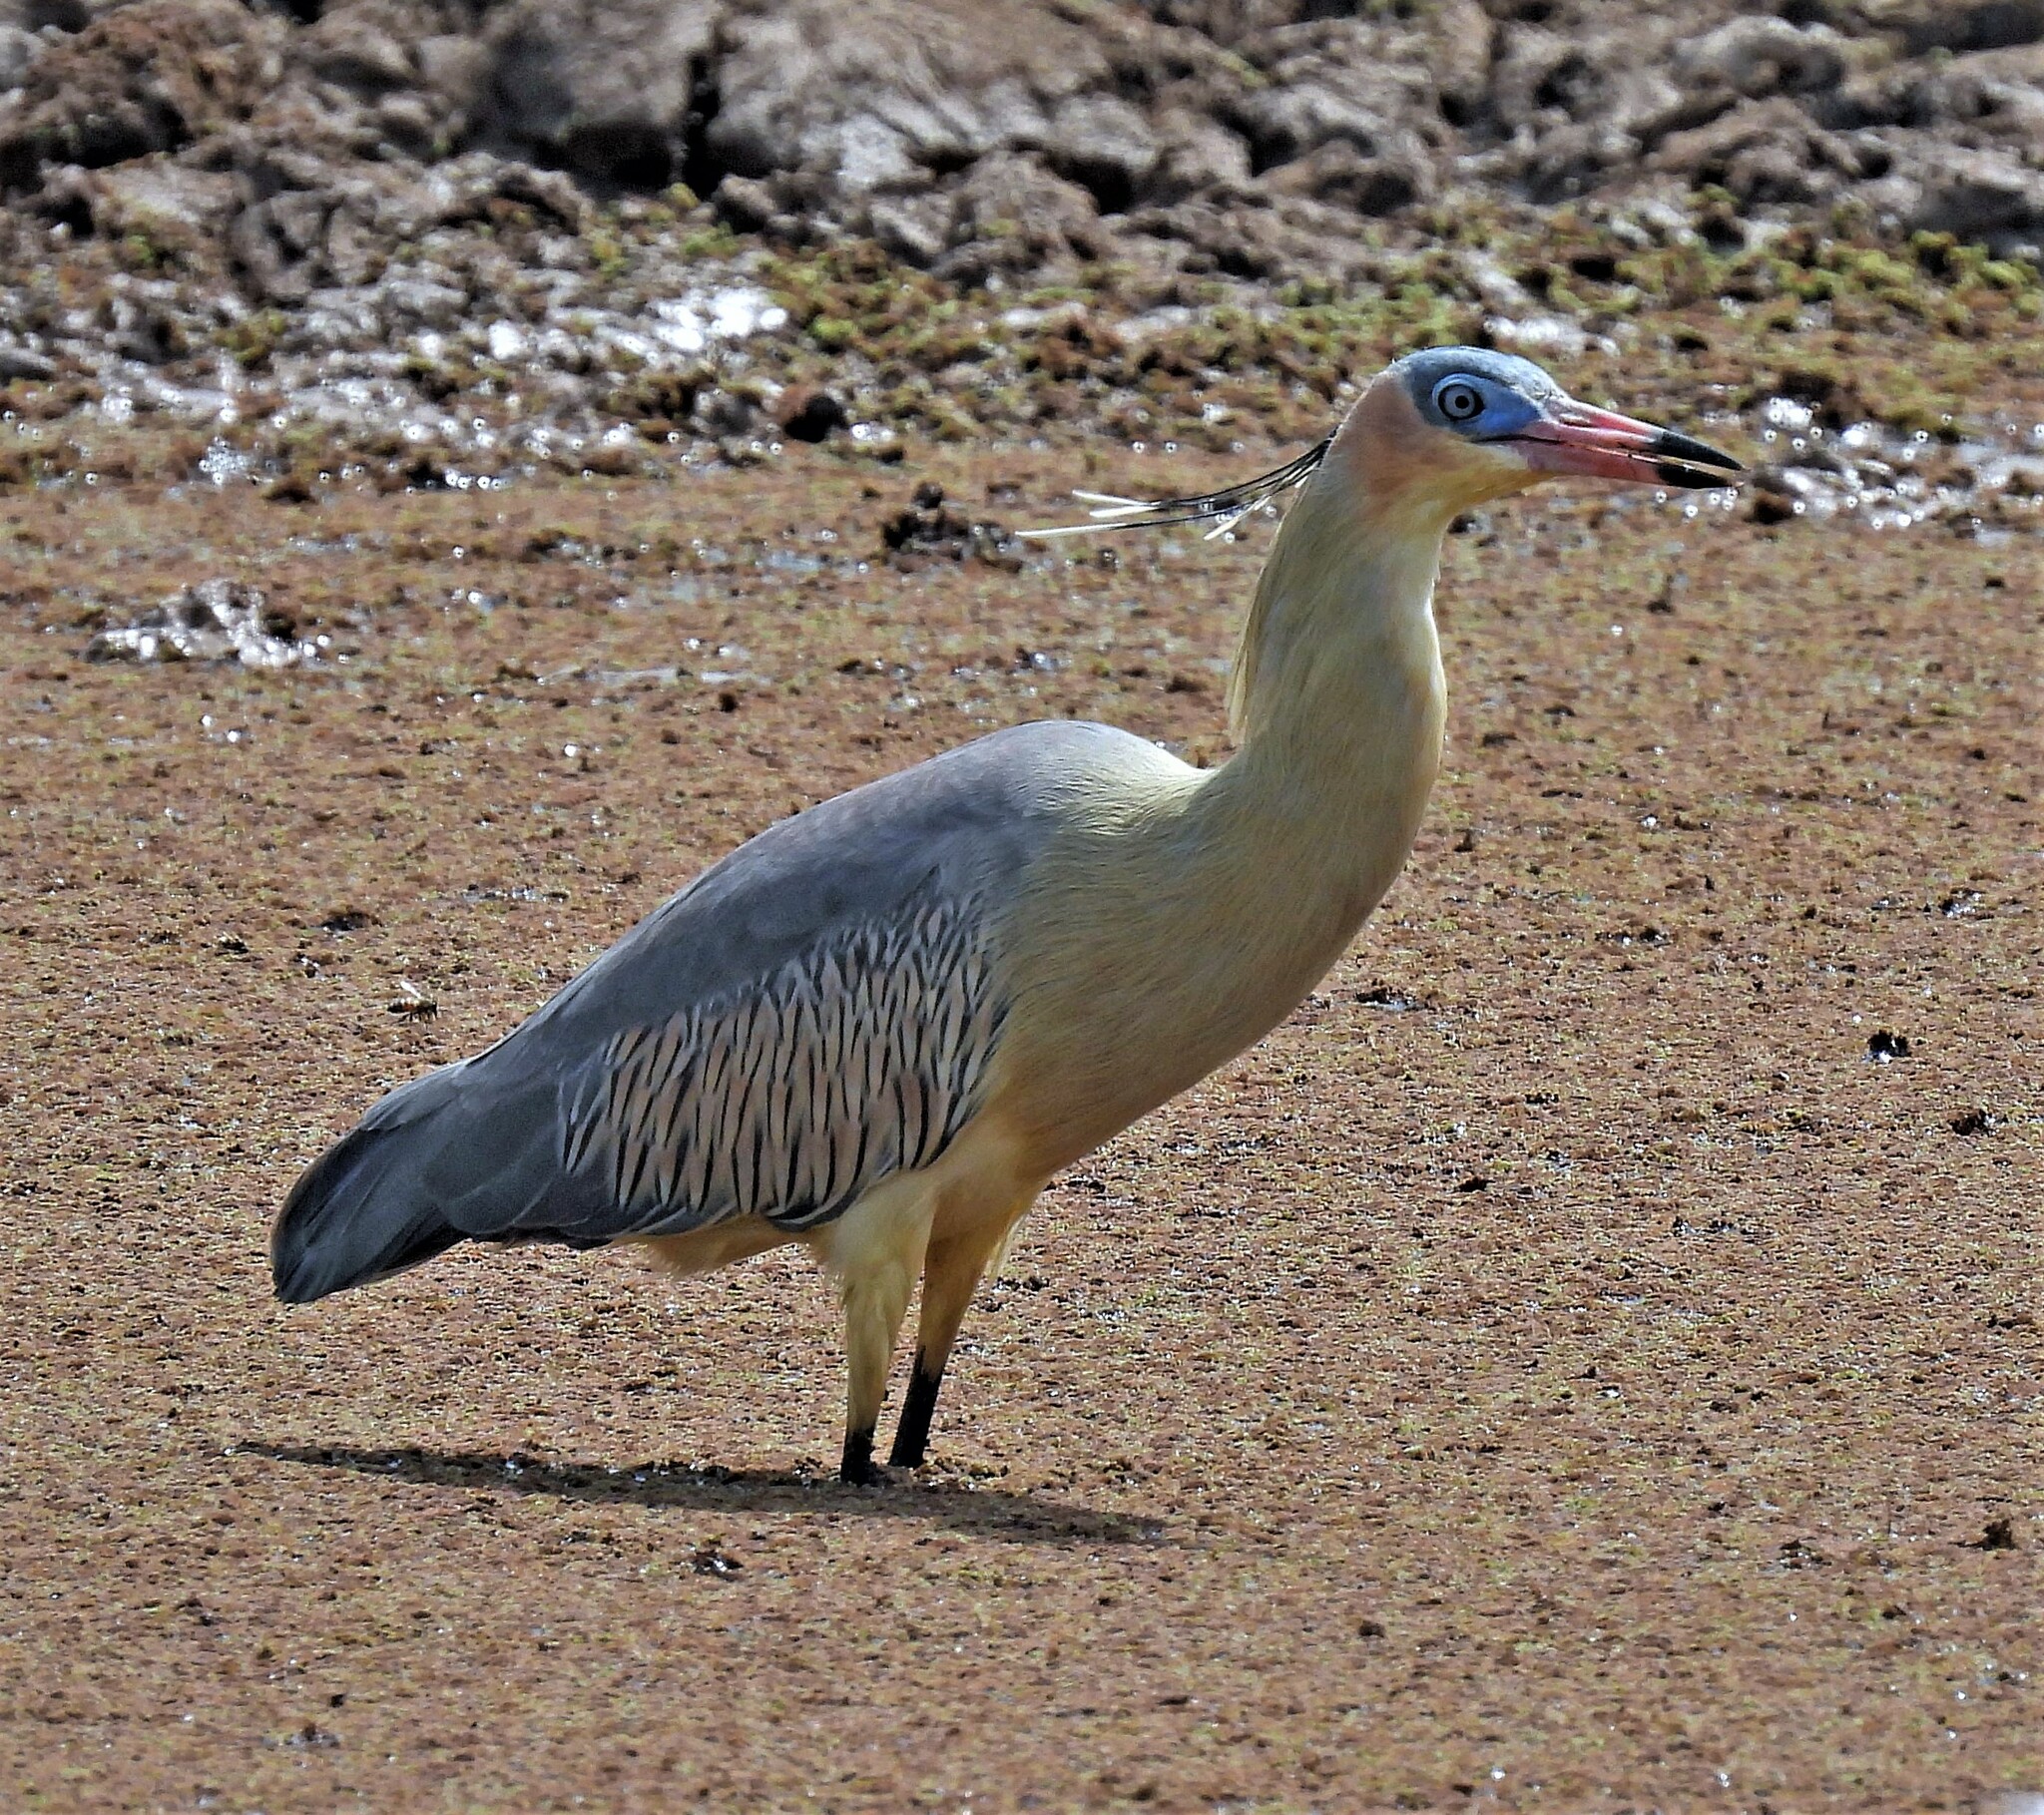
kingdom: Animalia
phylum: Chordata
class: Aves
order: Pelecaniformes
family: Ardeidae
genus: Syrigma
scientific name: Syrigma sibilatrix
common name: Whistling heron
